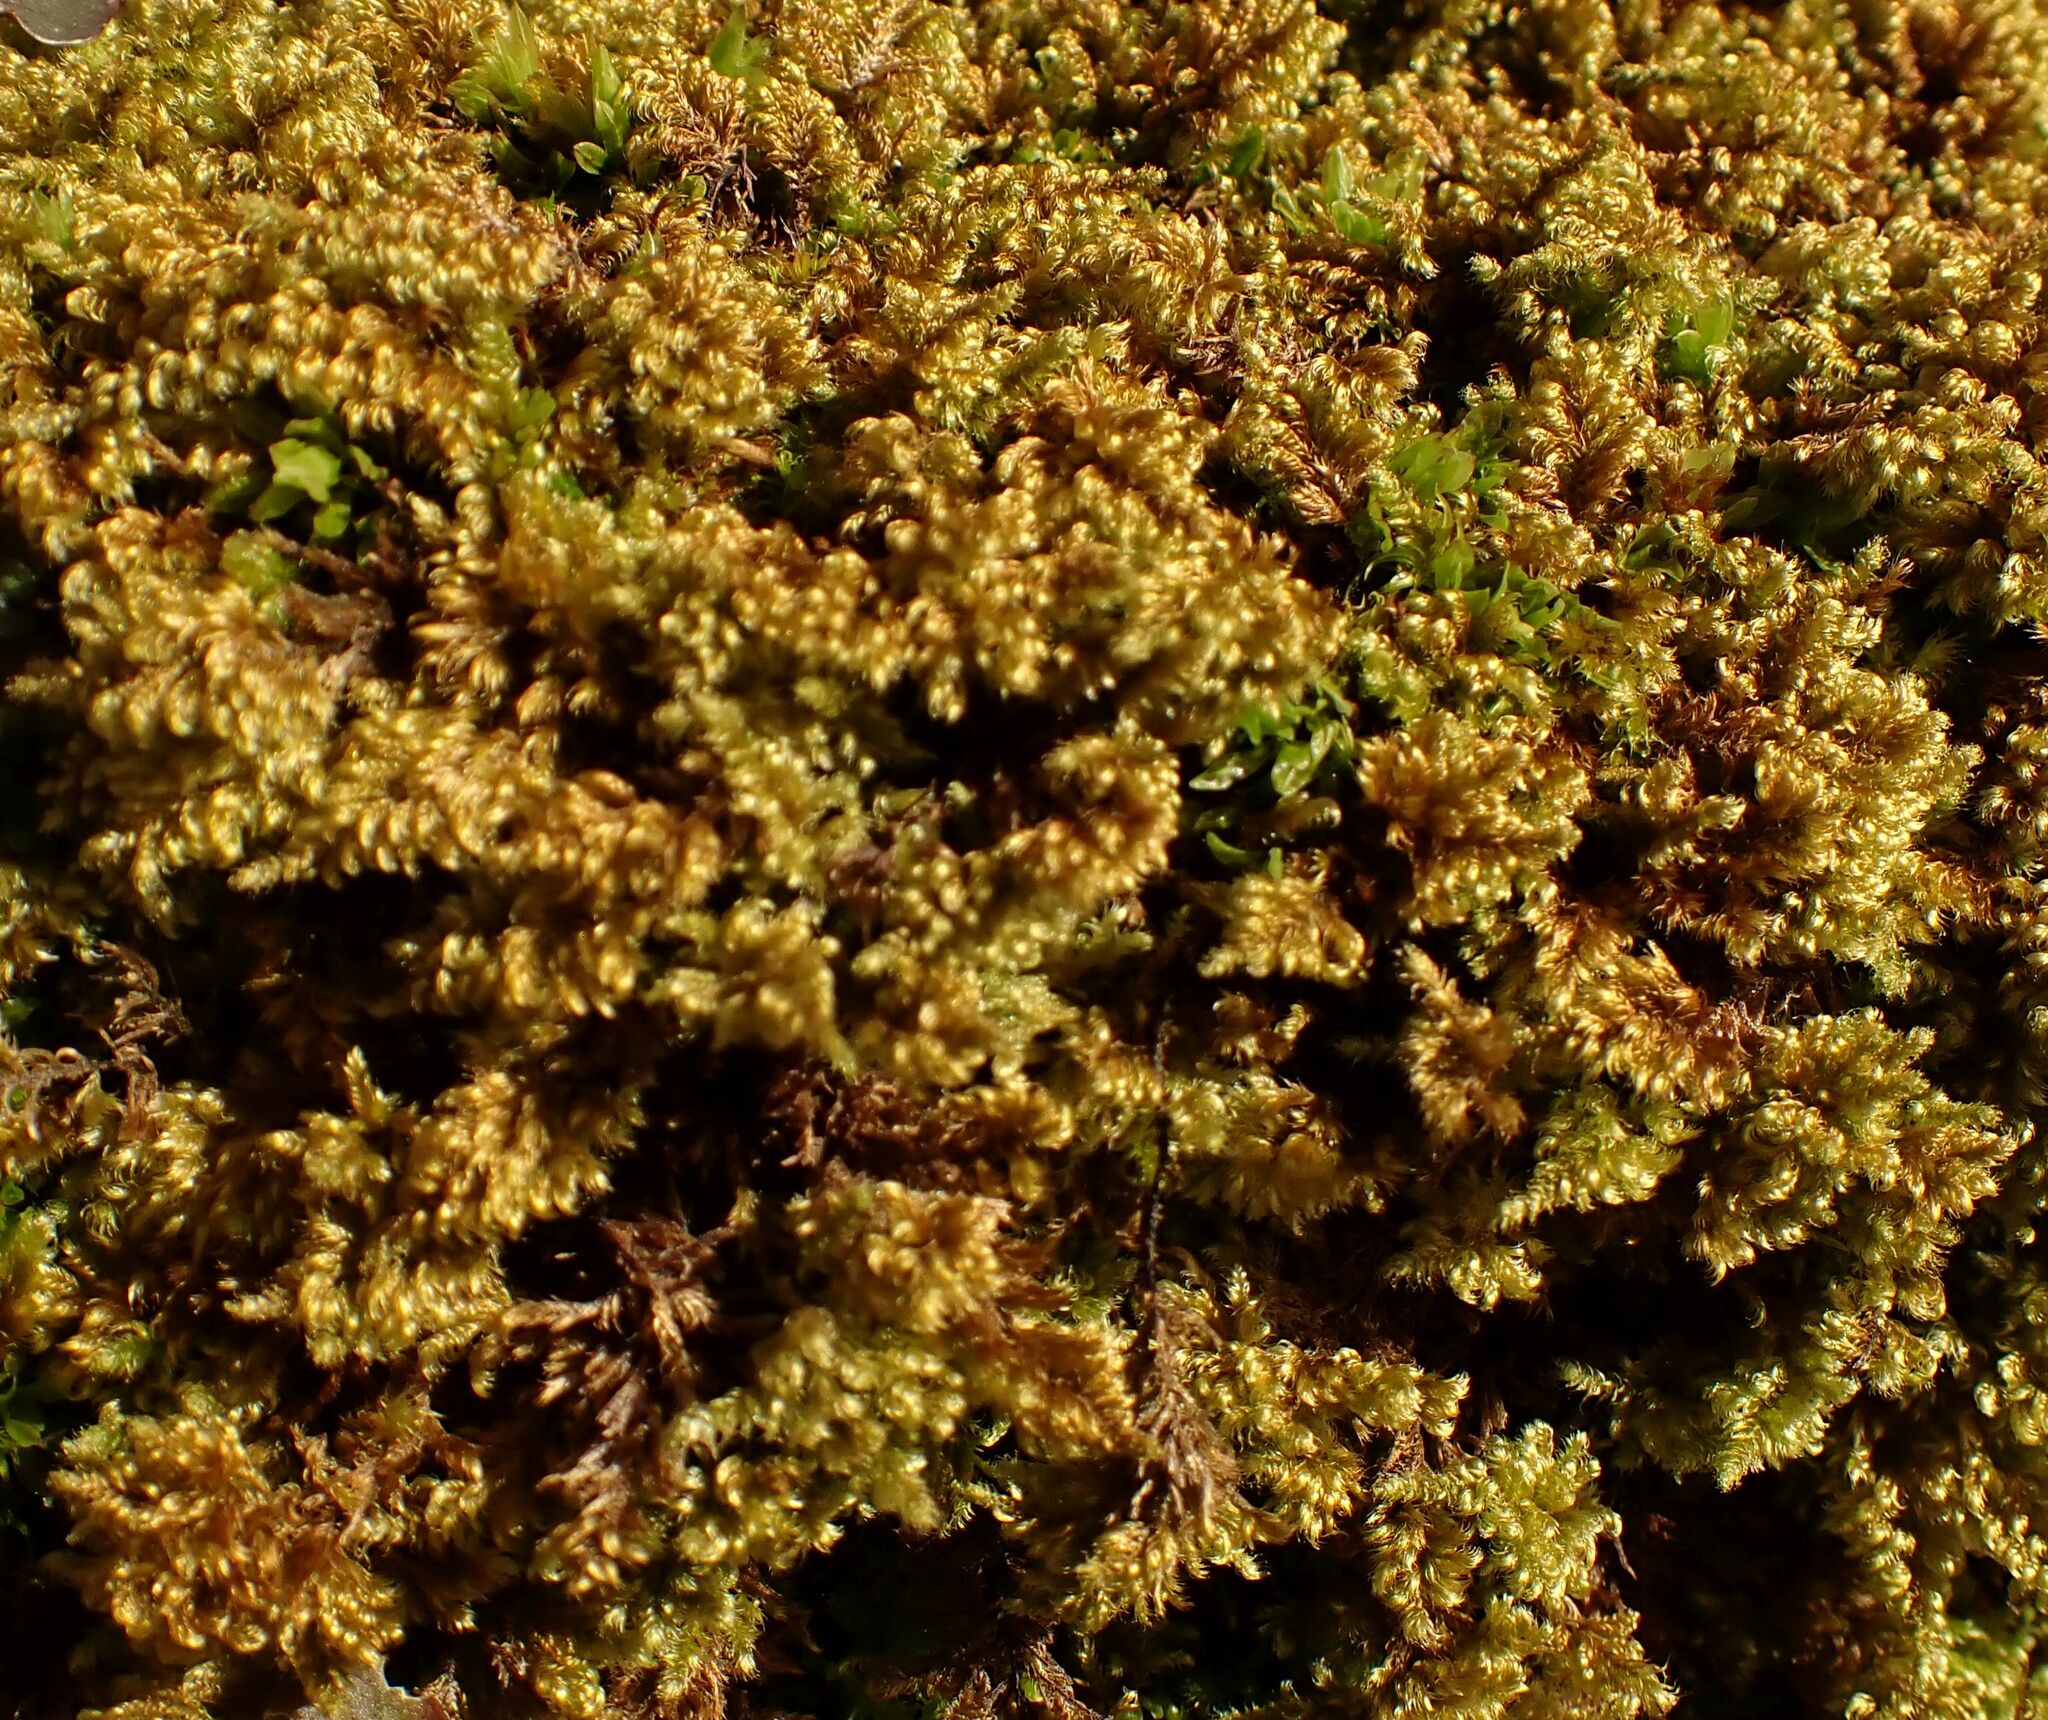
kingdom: Plantae
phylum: Bryophyta
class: Bryopsida
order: Hypnales
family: Myuriaceae
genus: Ctenidium
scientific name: Ctenidium molluscum
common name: Chalk comb-moss
